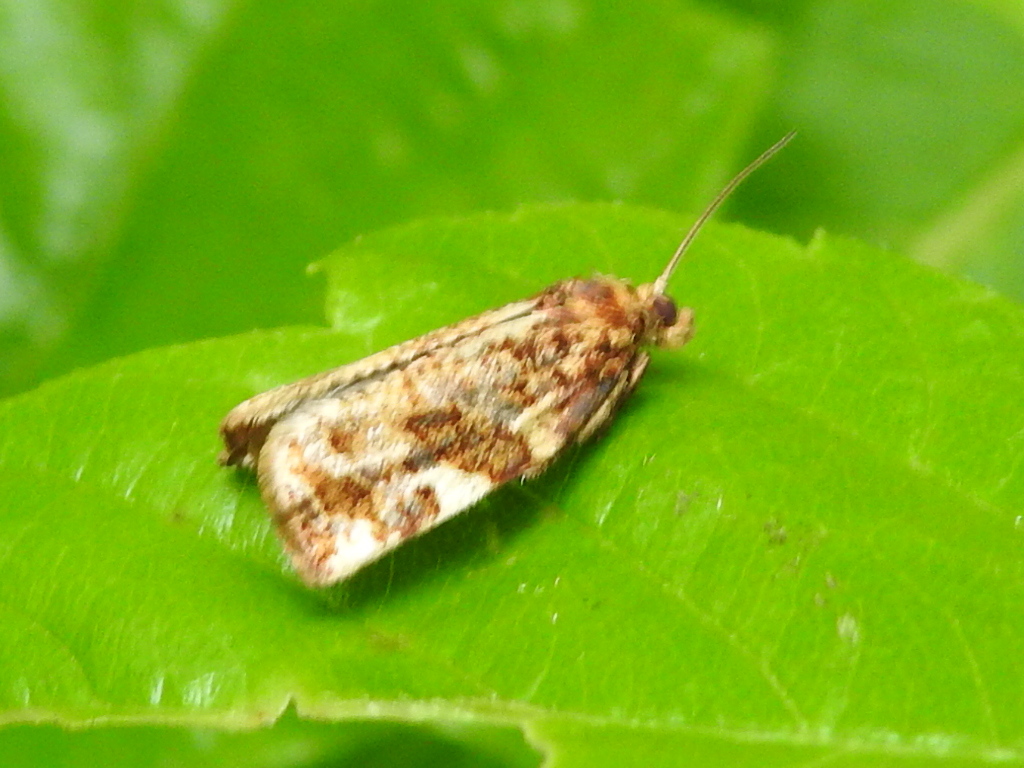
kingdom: Animalia
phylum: Arthropoda
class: Insecta
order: Lepidoptera
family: Tortricidae
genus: Archips
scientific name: Archips argyrospila
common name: Fruit-tree leafroller moth
